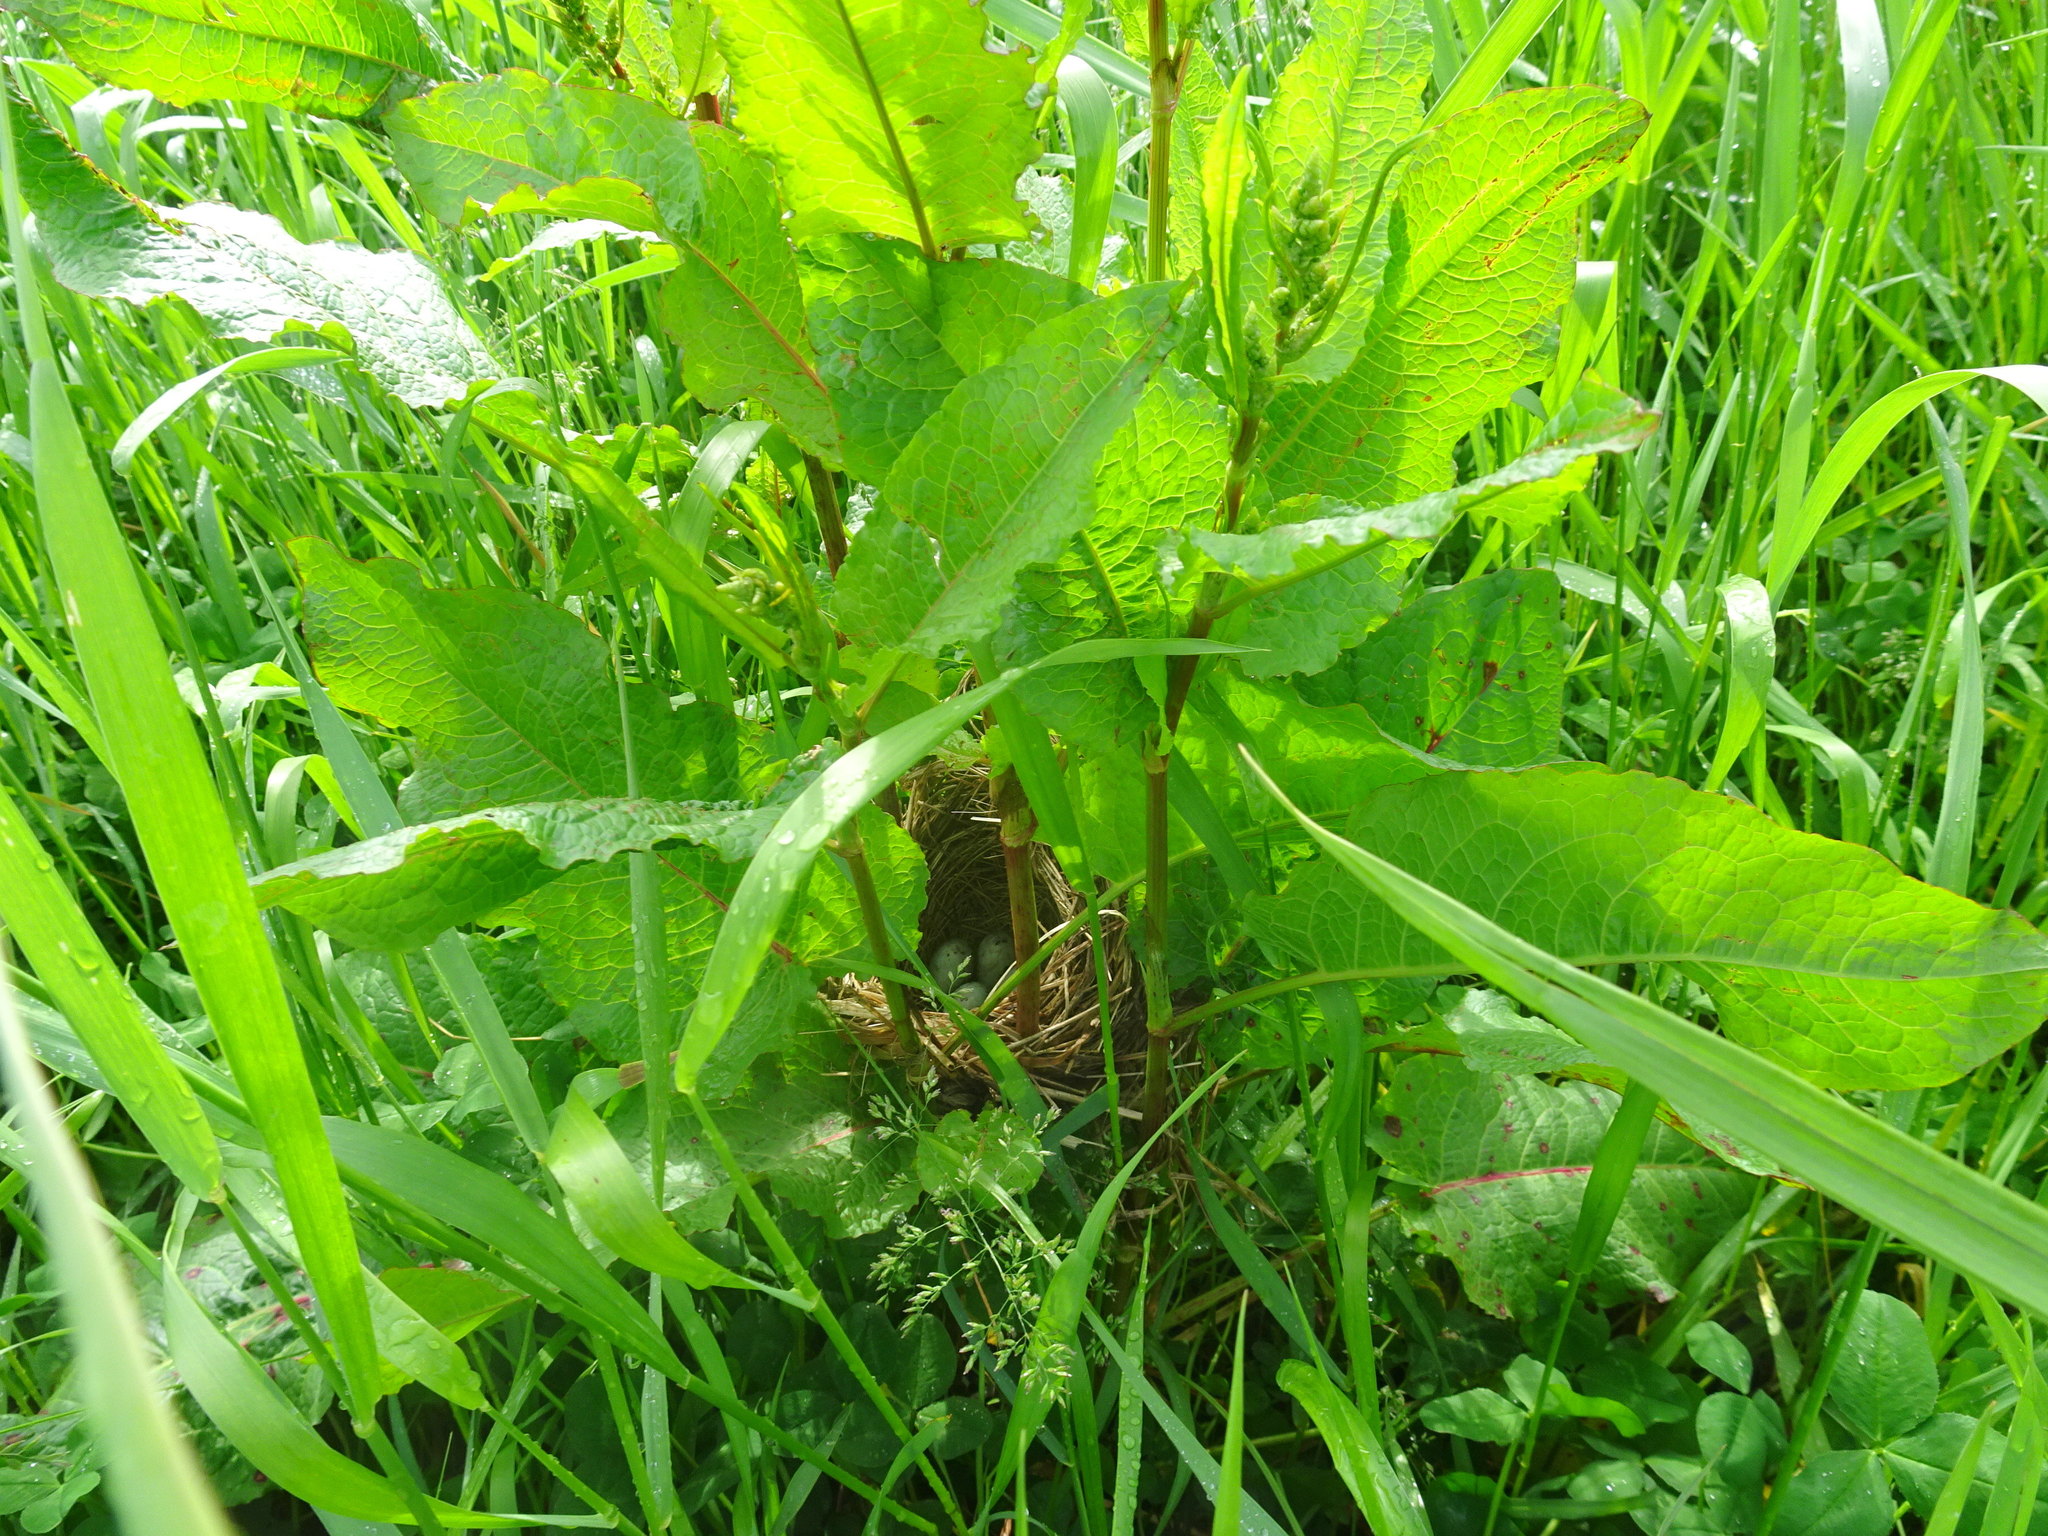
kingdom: Animalia
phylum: Chordata
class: Aves
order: Passeriformes
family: Icteridae
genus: Agelaius
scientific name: Agelaius phoeniceus
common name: Red-winged blackbird
